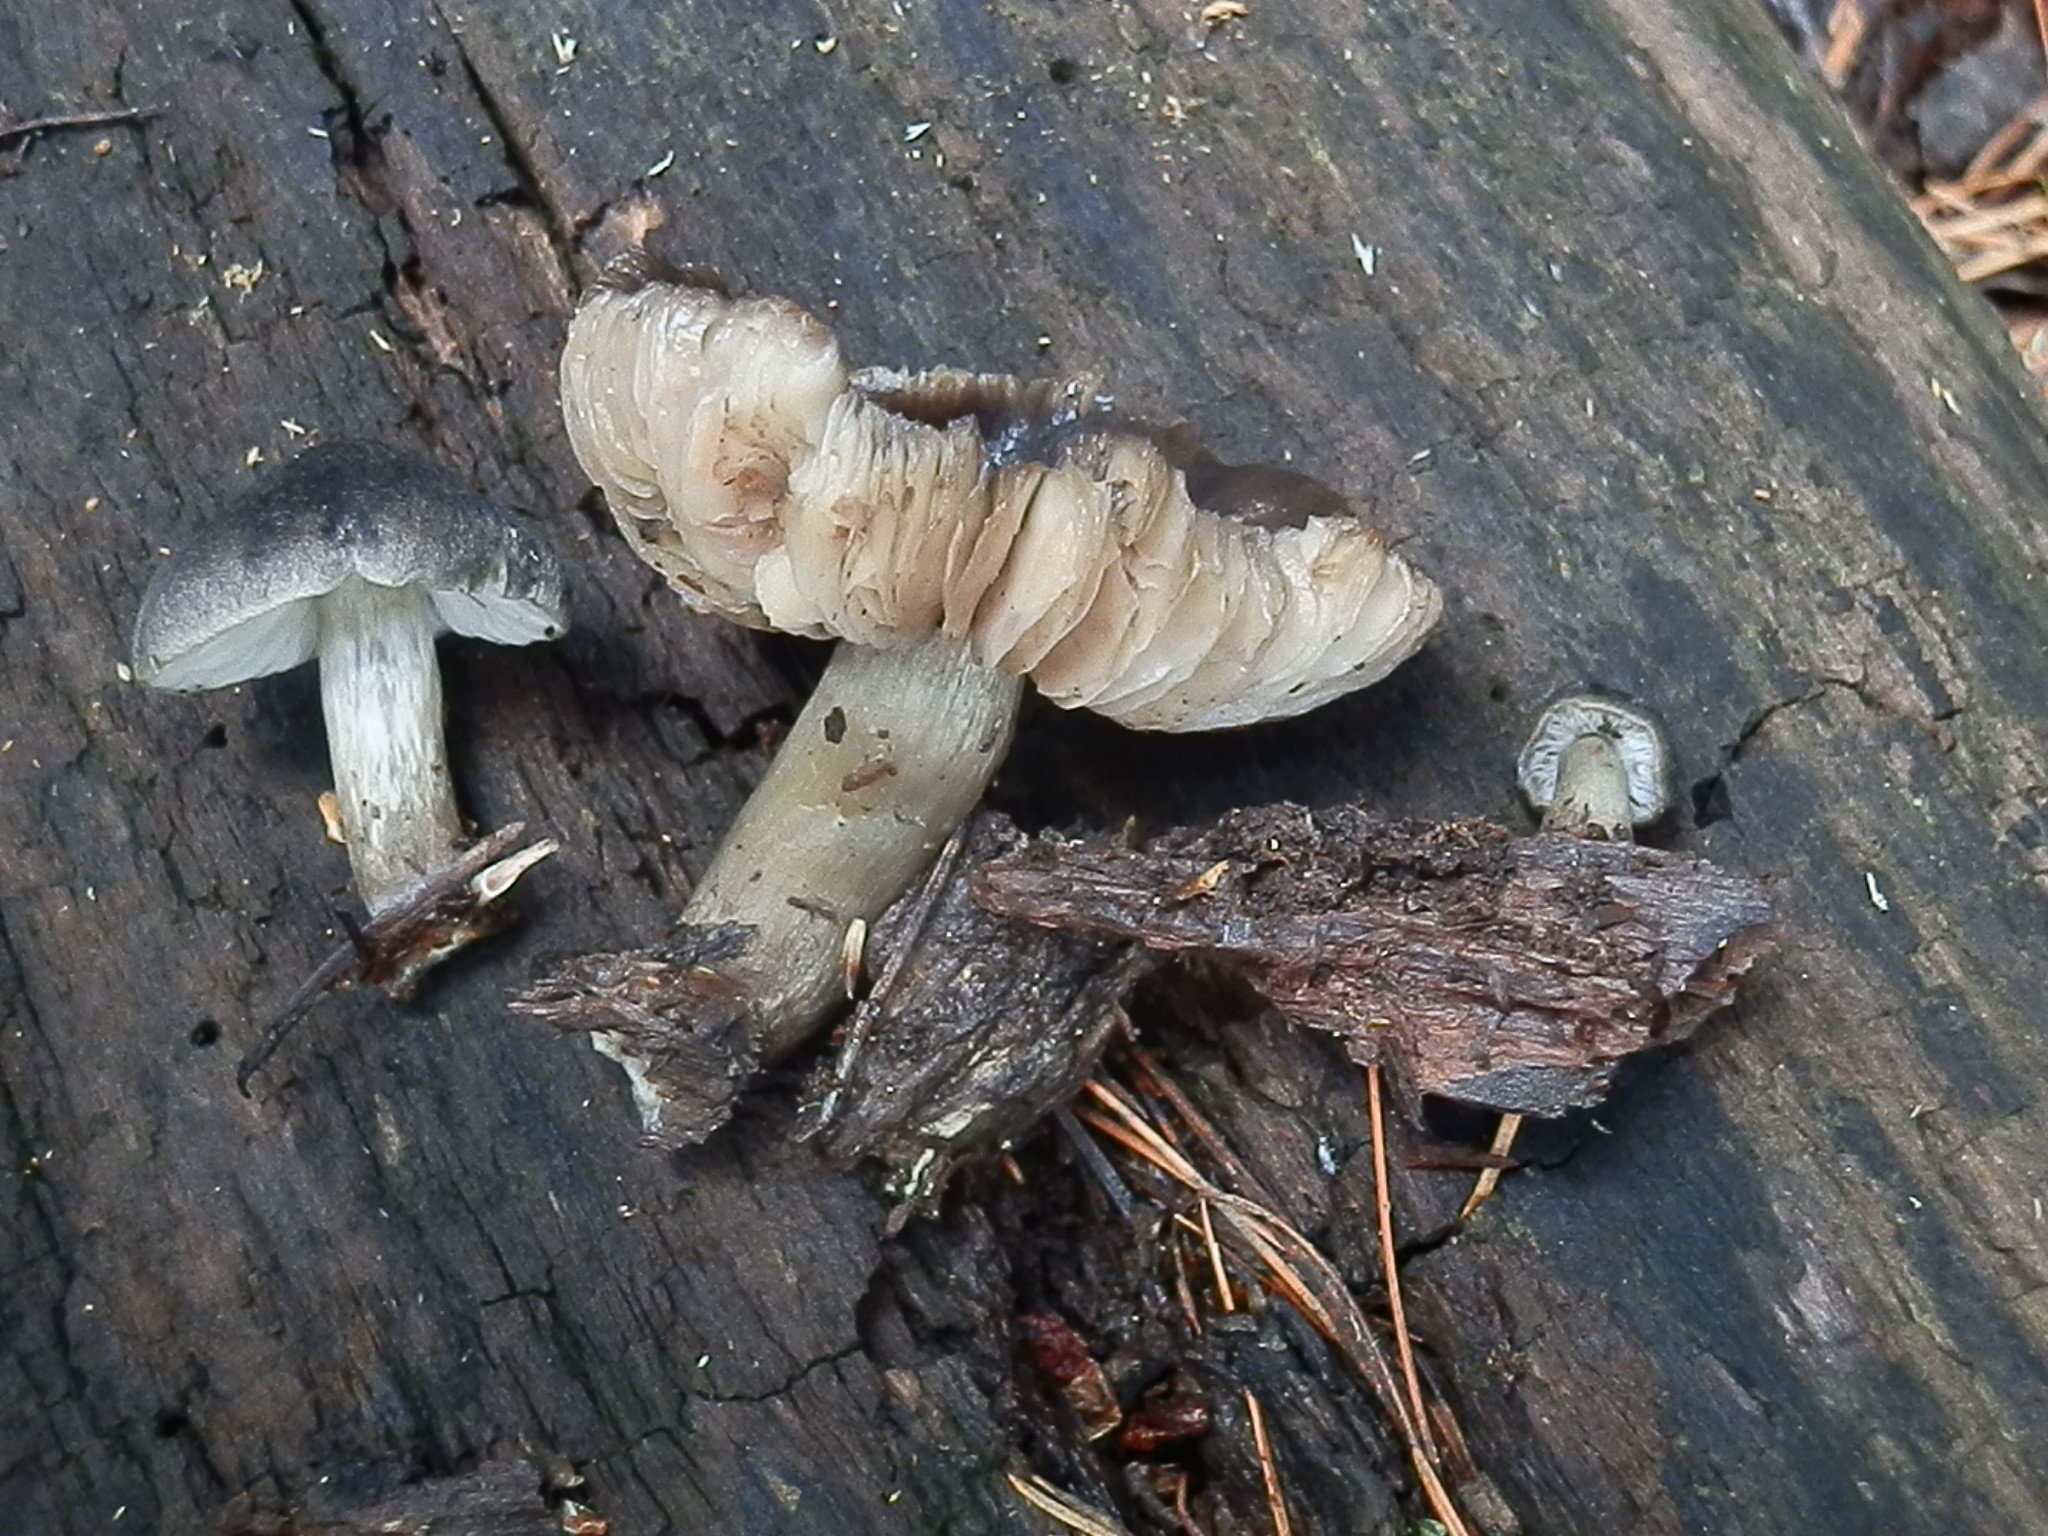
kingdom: Fungi
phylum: Basidiomycota
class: Agaricomycetes
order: Agaricales
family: Pluteaceae
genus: Pluteus
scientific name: Pluteus americanus
